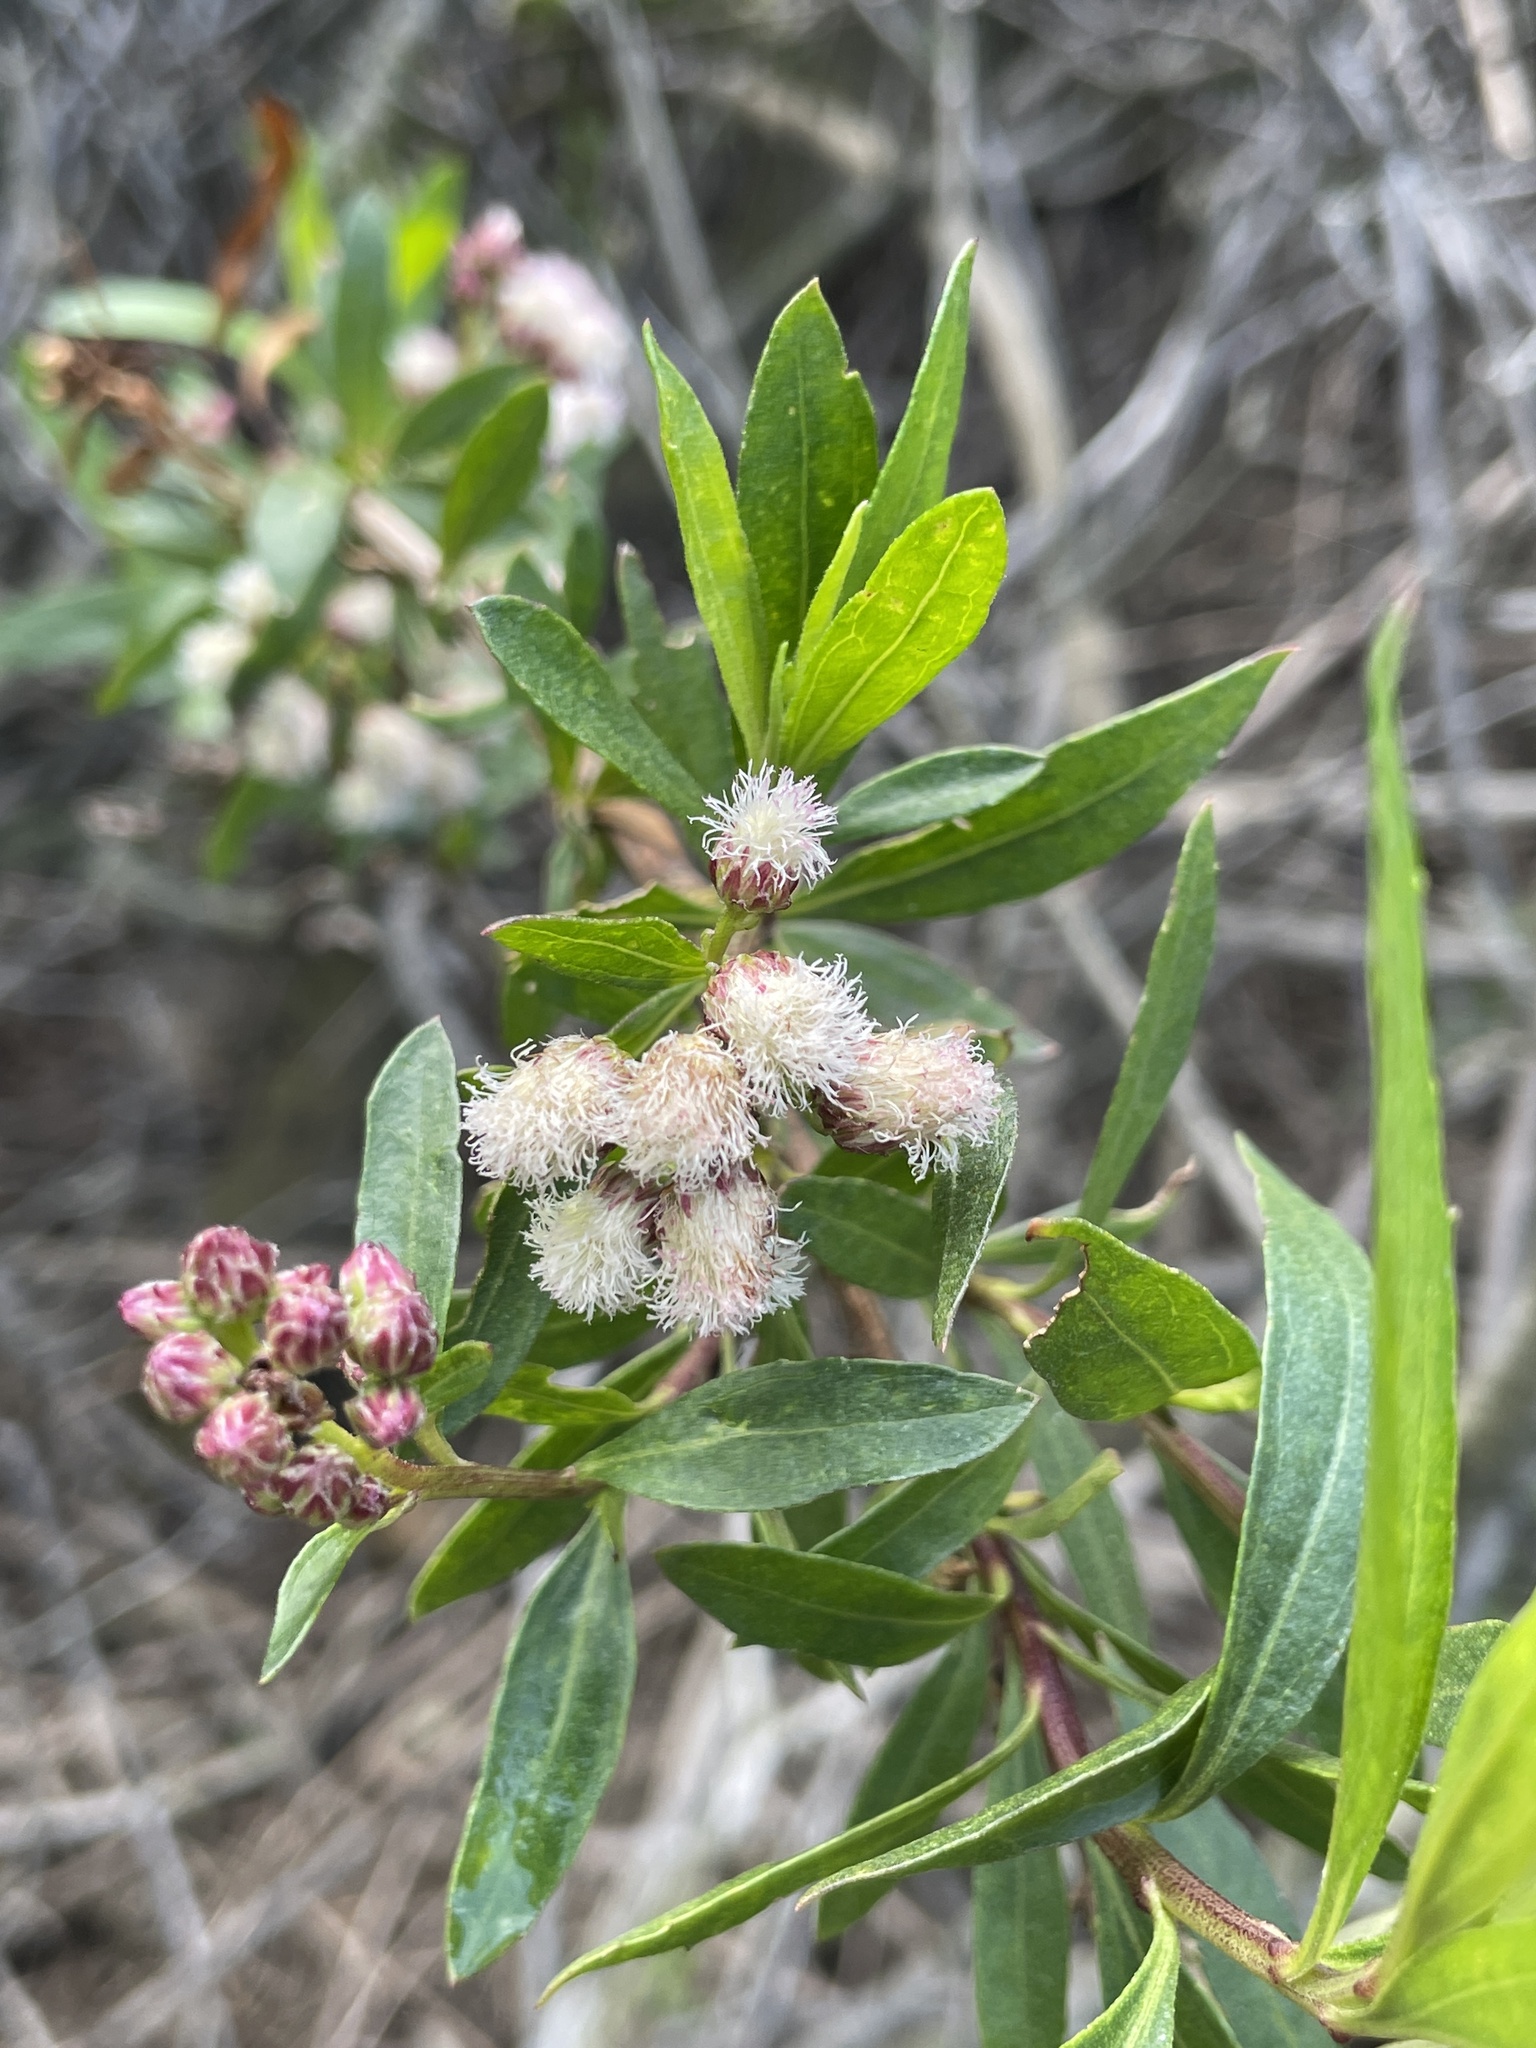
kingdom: Plantae
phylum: Tracheophyta
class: Magnoliopsida
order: Asterales
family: Asteraceae
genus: Baccharis
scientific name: Baccharis salicifolia
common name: Sticky baccharis
